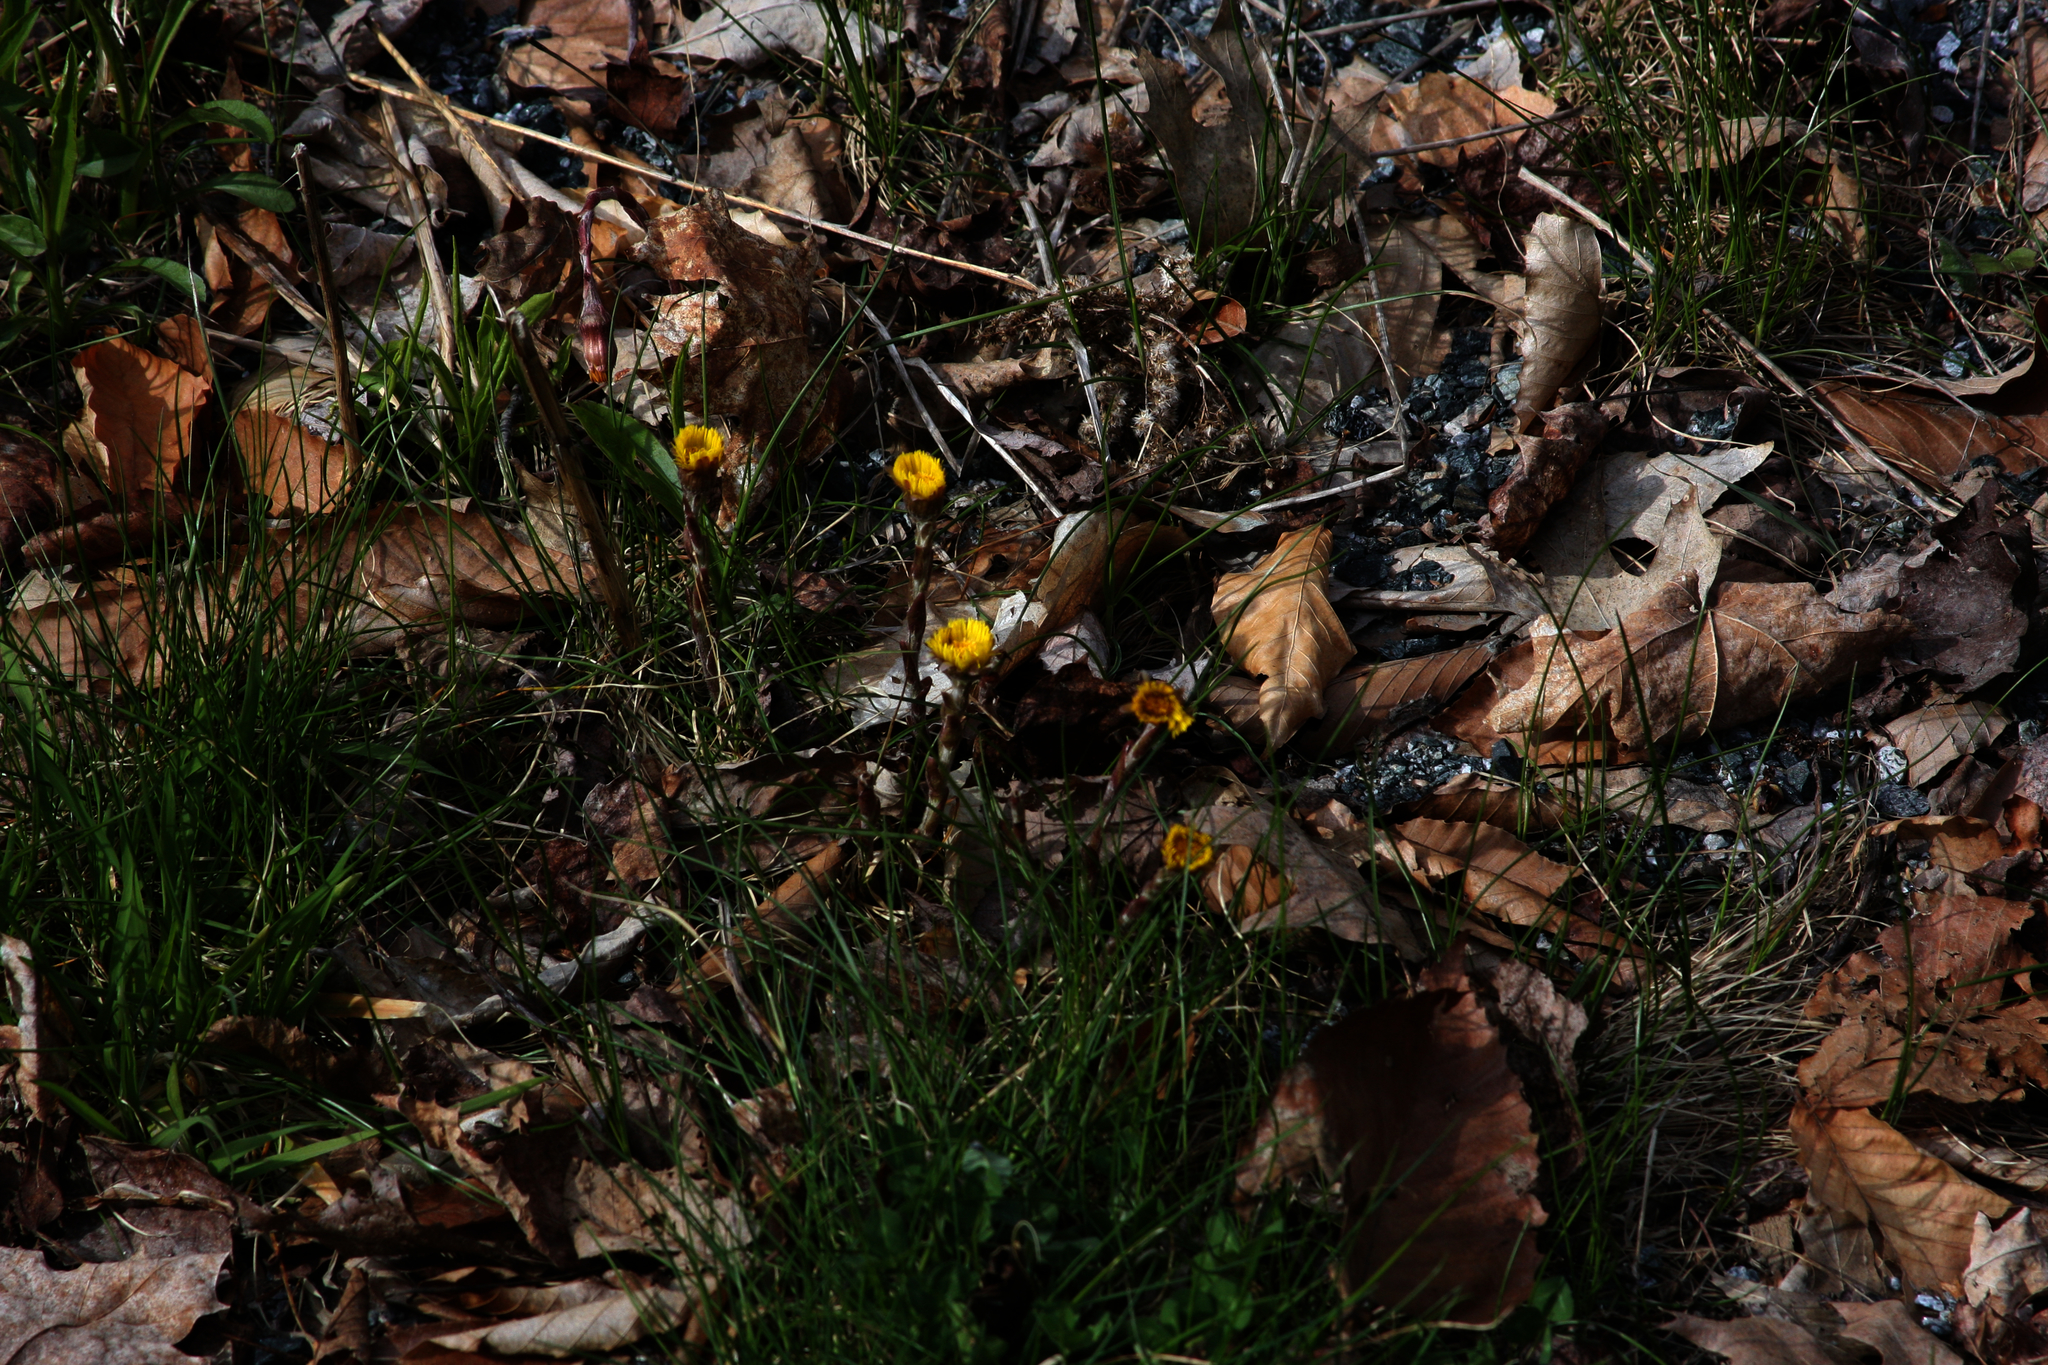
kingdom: Plantae
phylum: Tracheophyta
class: Magnoliopsida
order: Asterales
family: Asteraceae
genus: Tussilago
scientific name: Tussilago farfara
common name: Coltsfoot
